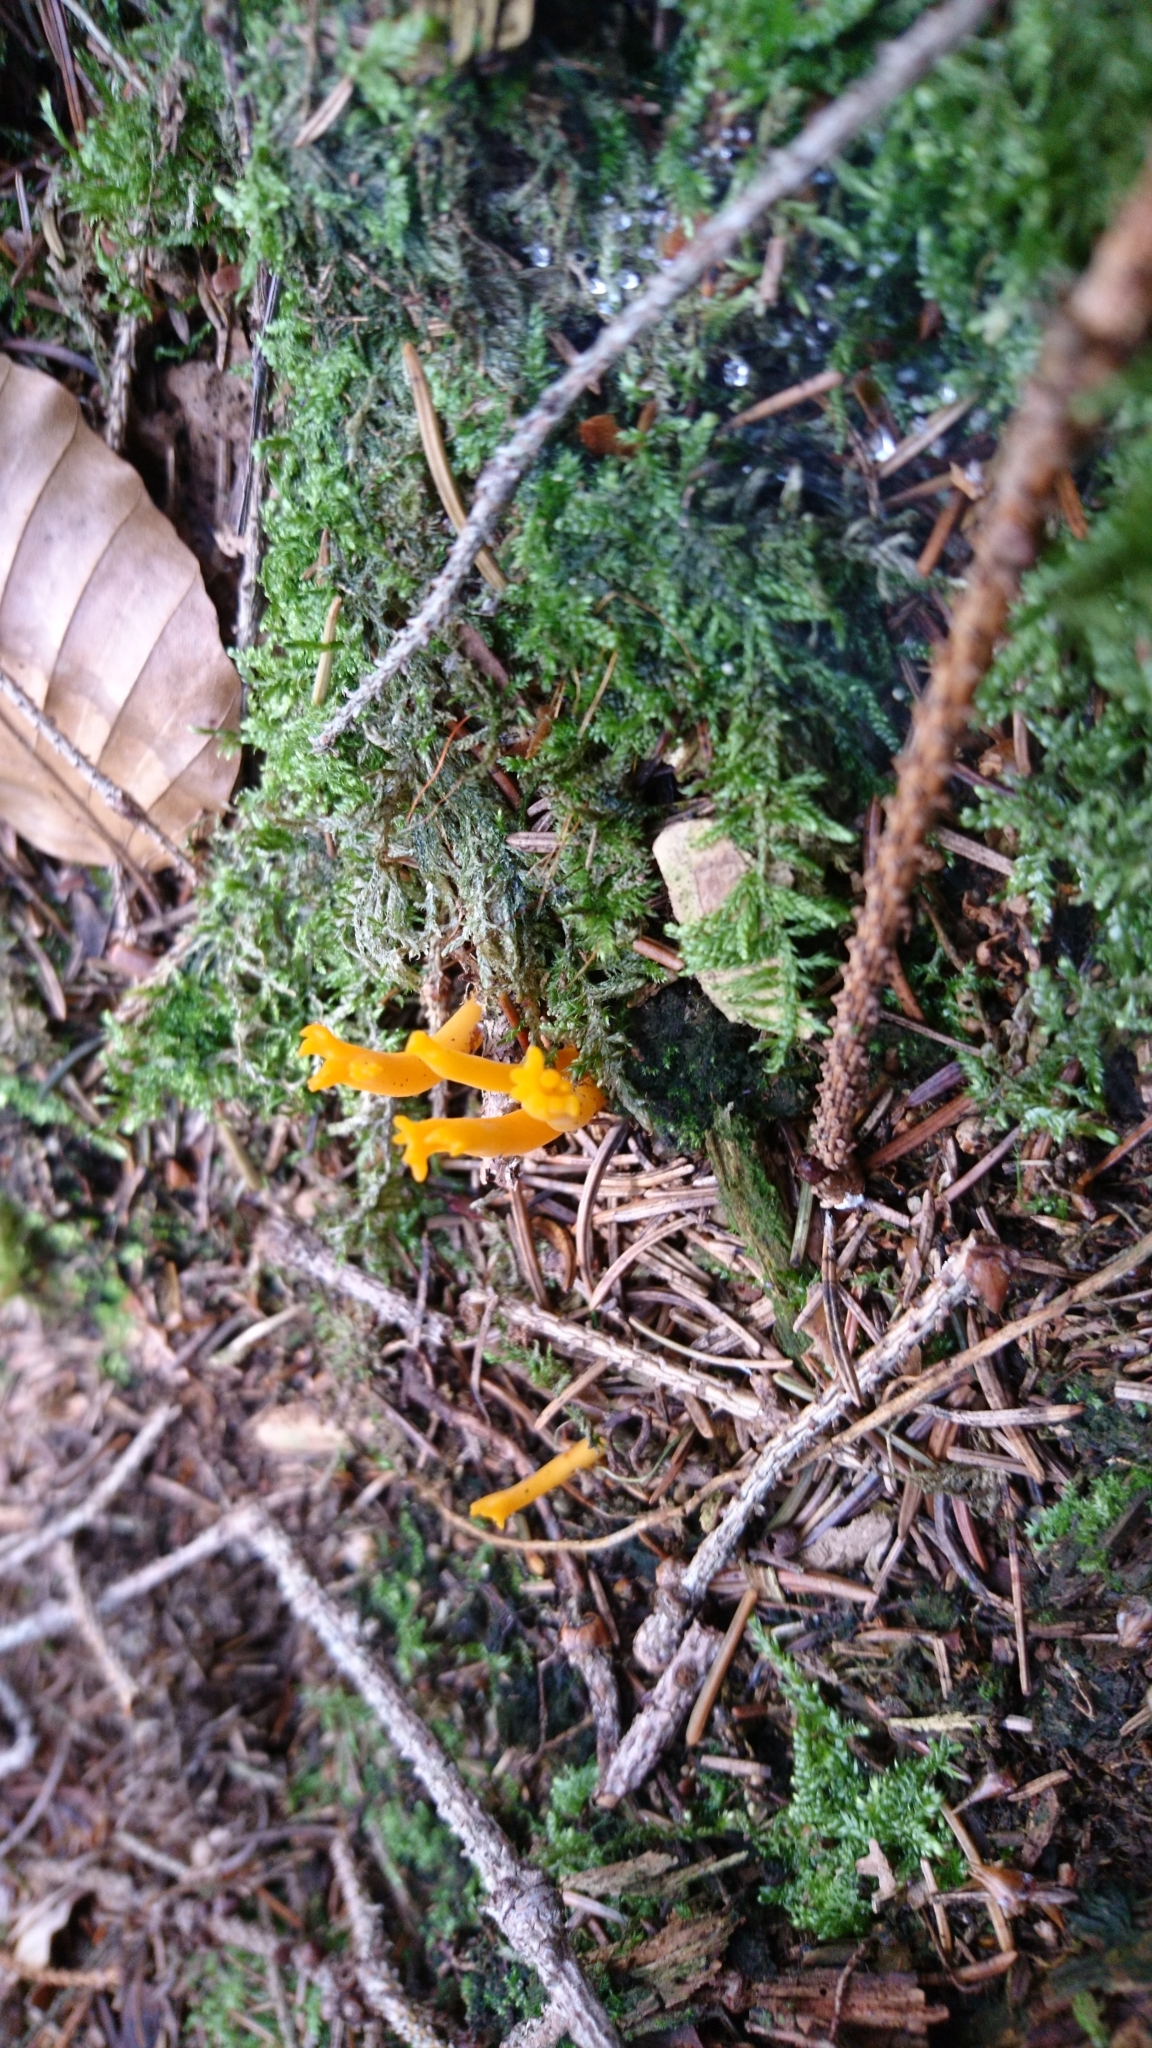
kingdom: Fungi
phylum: Basidiomycota
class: Dacrymycetes
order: Dacrymycetales
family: Dacrymycetaceae
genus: Calocera
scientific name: Calocera viscosa
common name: Yellow stagshorn
